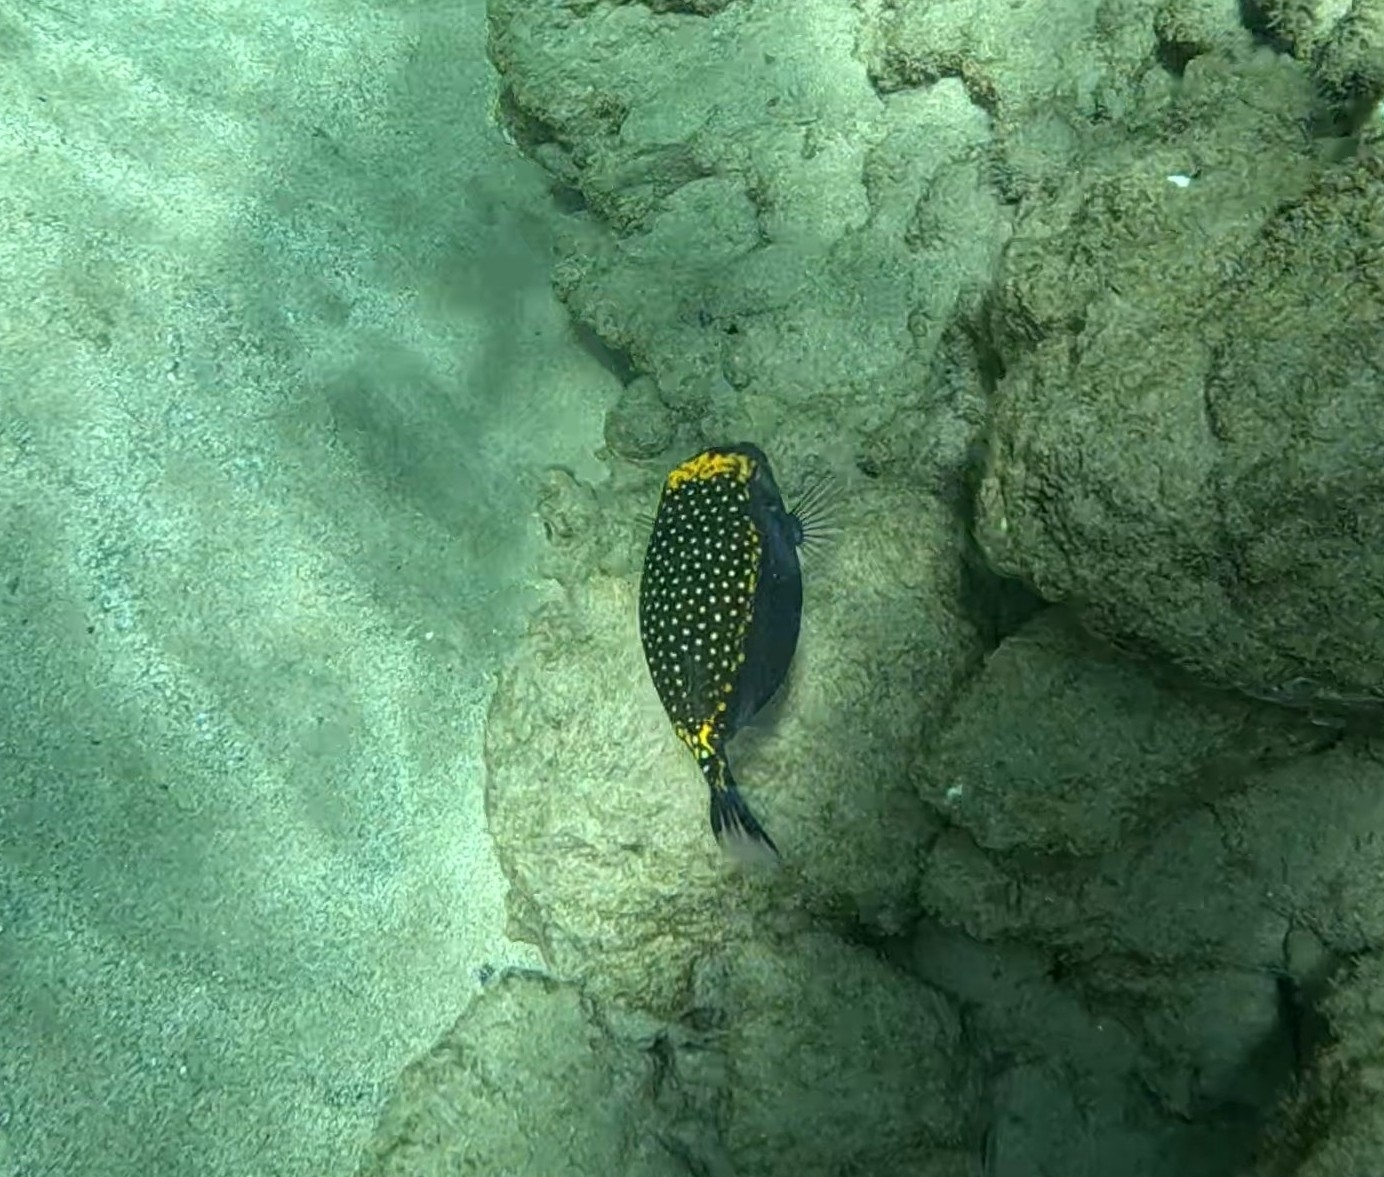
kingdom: Animalia
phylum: Chordata
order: Tetraodontiformes
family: Ostraciidae
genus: Ostracion
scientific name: Ostracion meleagris
